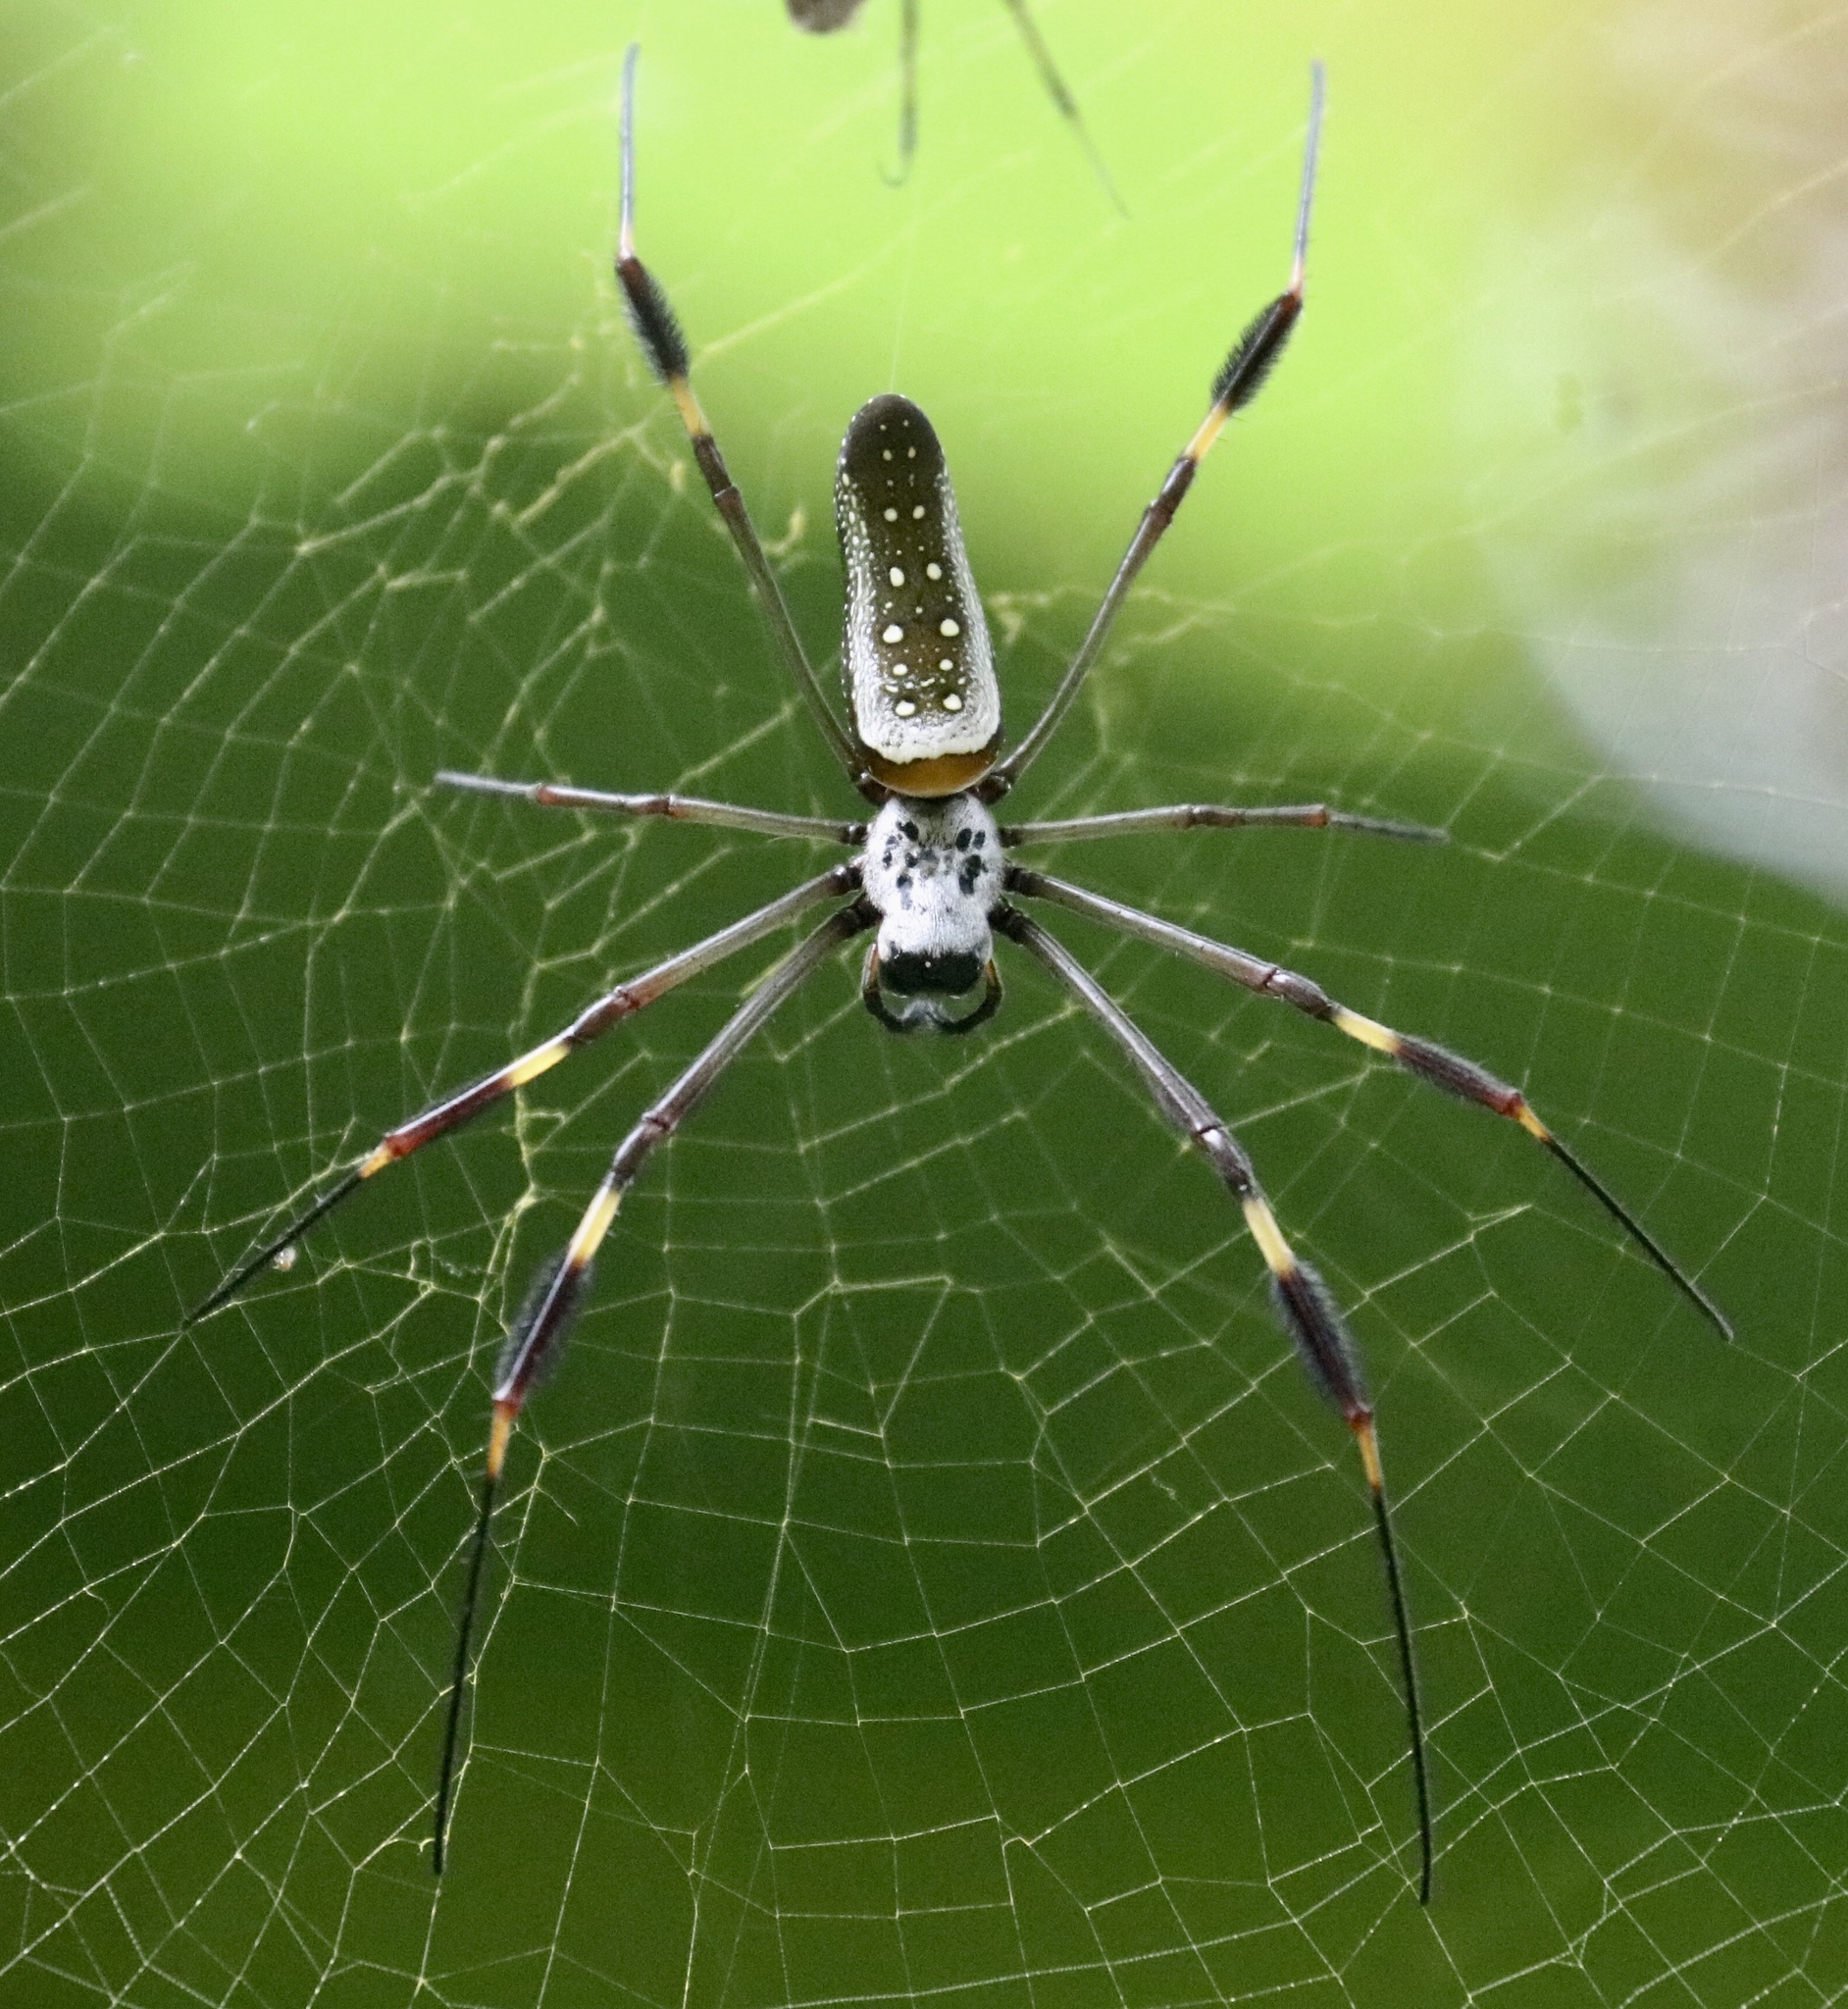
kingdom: Animalia
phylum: Arthropoda
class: Arachnida
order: Araneae
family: Araneidae
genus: Trichonephila
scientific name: Trichonephila clavipes
